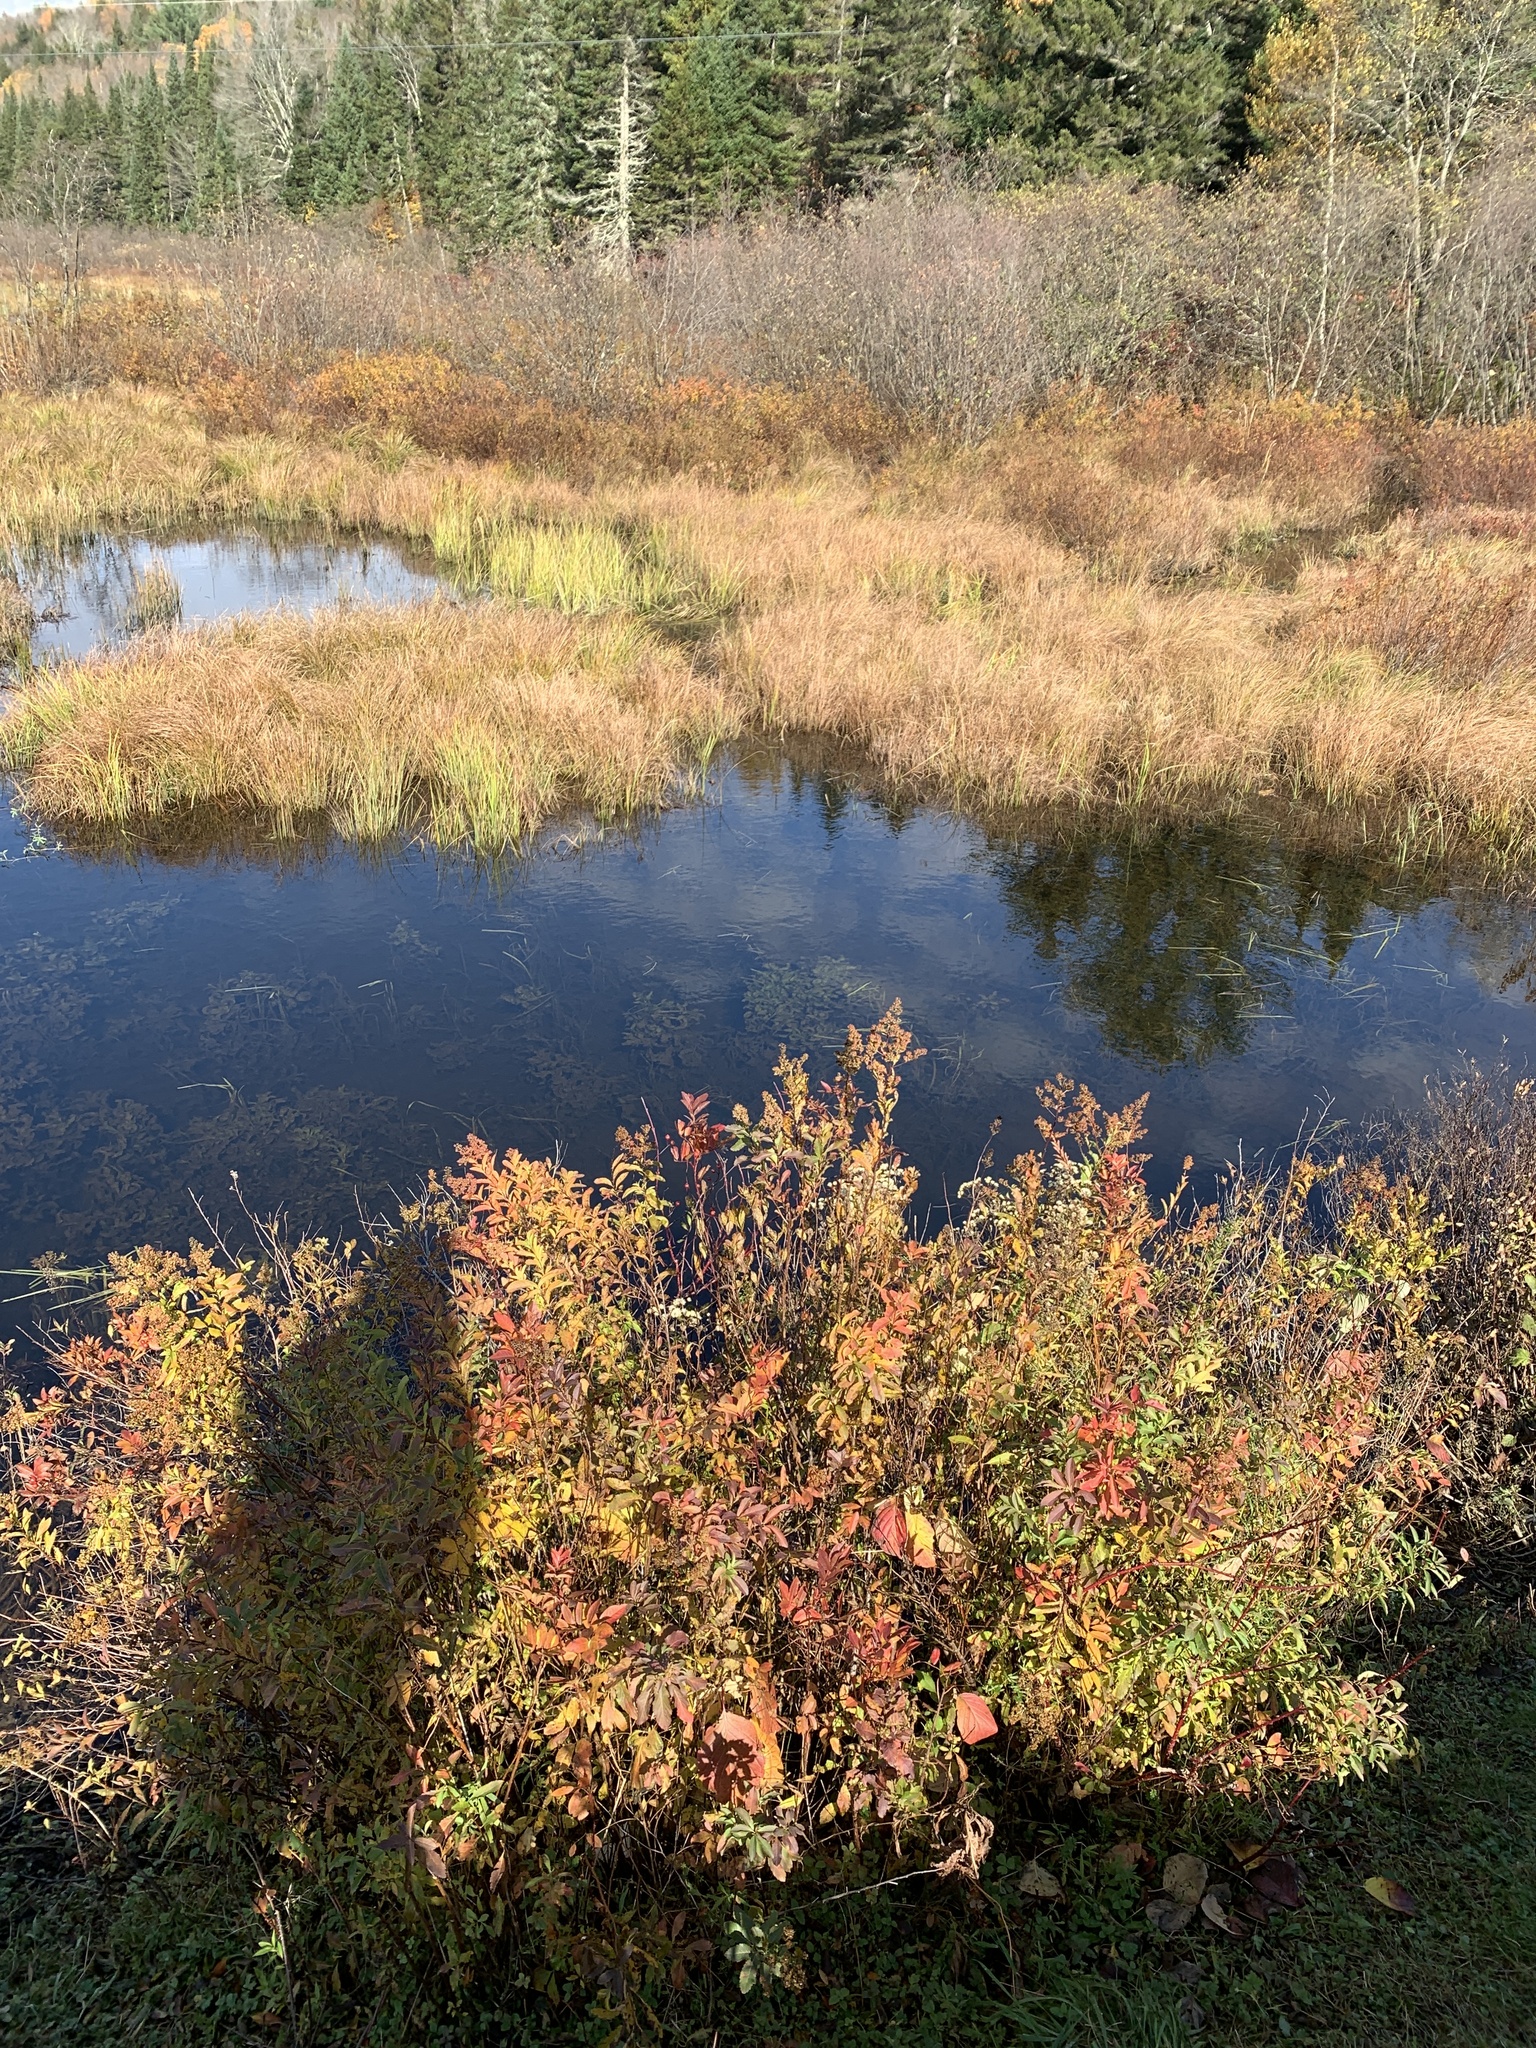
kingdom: Plantae
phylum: Tracheophyta
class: Magnoliopsida
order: Rosales
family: Rosaceae
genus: Spiraea
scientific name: Spiraea alba
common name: Pale bridewort
